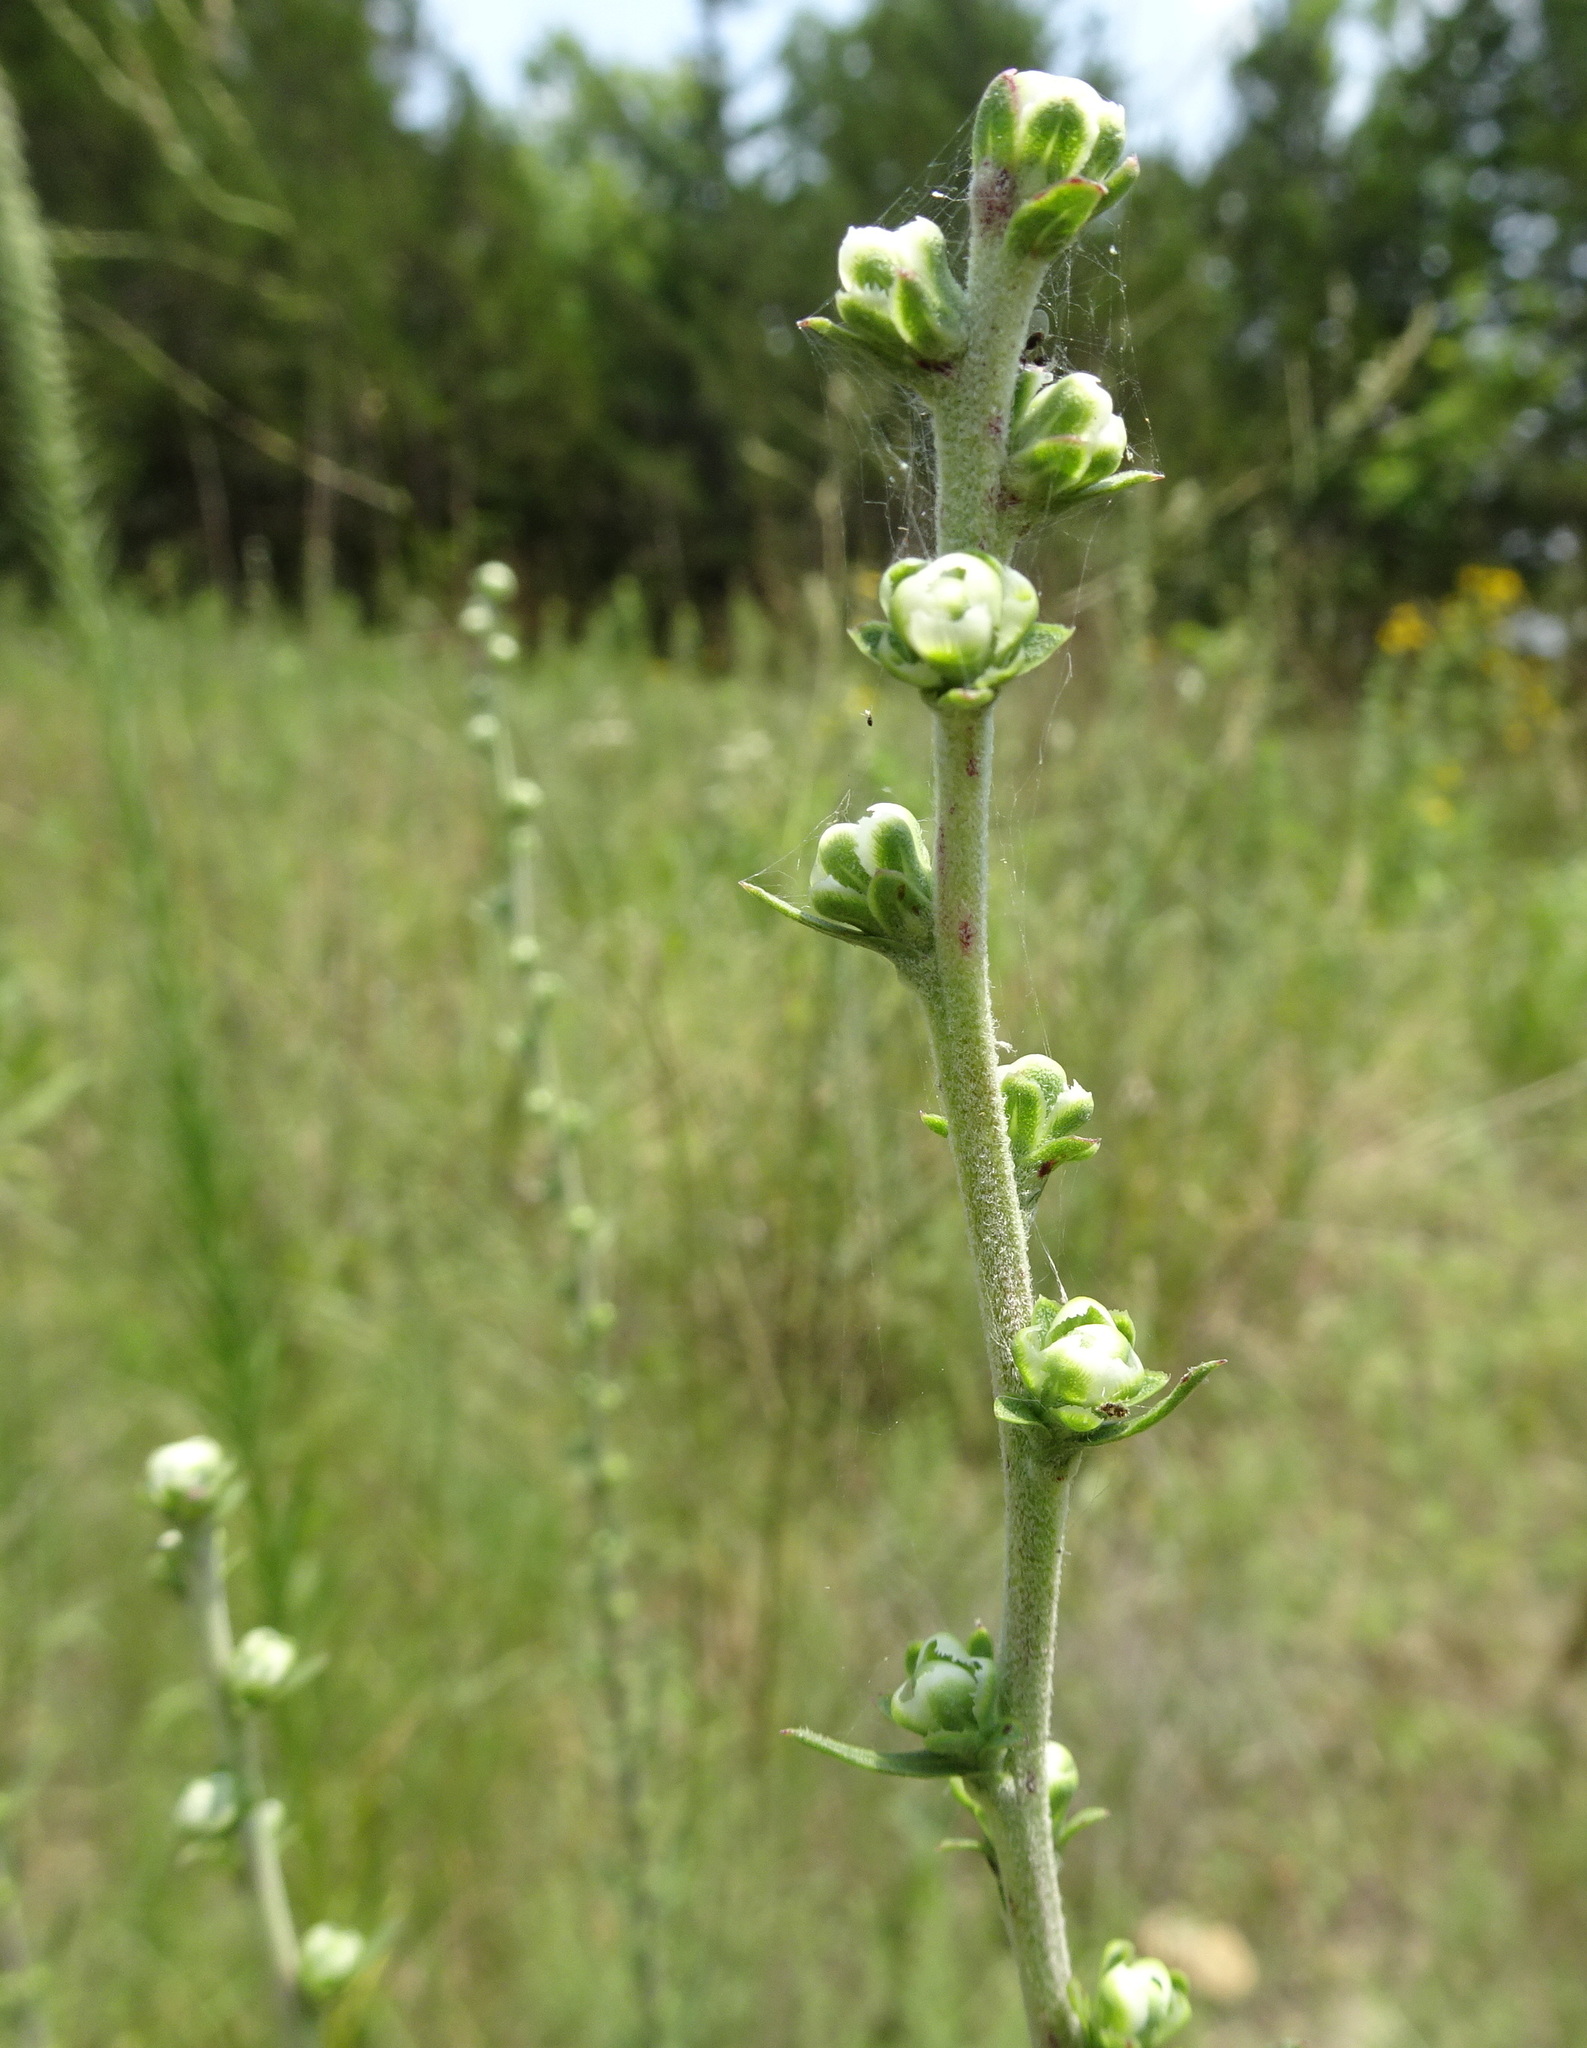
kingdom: Plantae
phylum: Tracheophyta
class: Magnoliopsida
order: Asterales
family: Asteraceae
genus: Liatris
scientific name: Liatris aspera
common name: Lacerate blazing-star
